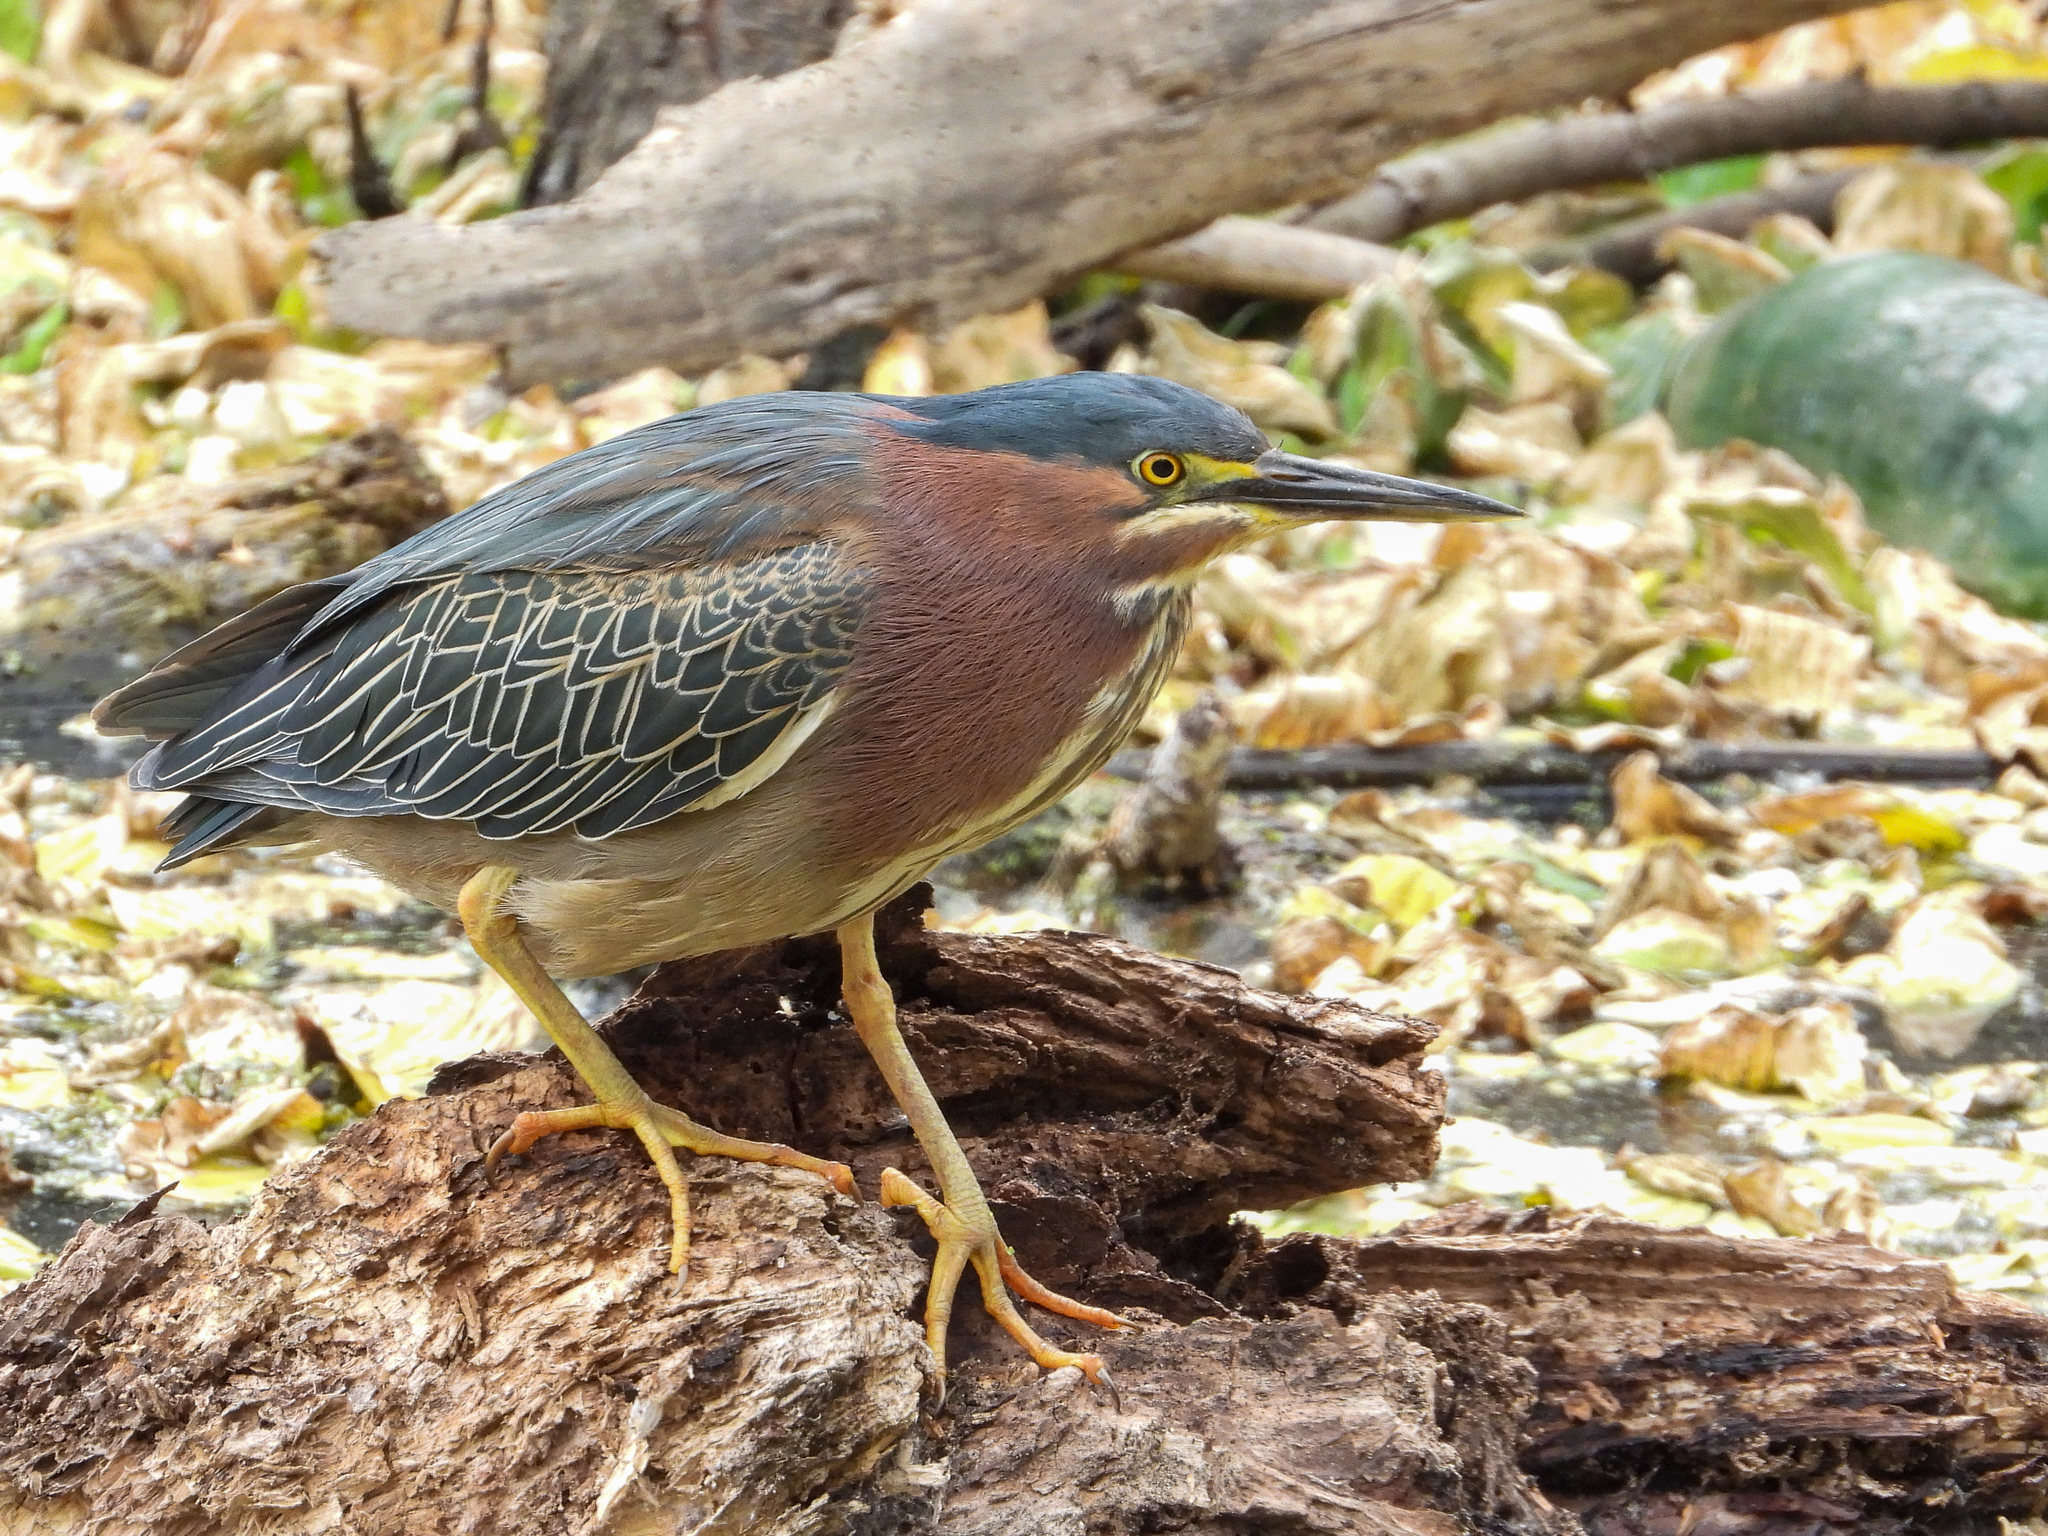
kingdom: Animalia
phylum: Chordata
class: Aves
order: Pelecaniformes
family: Ardeidae
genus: Butorides
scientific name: Butorides virescens
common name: Green heron
